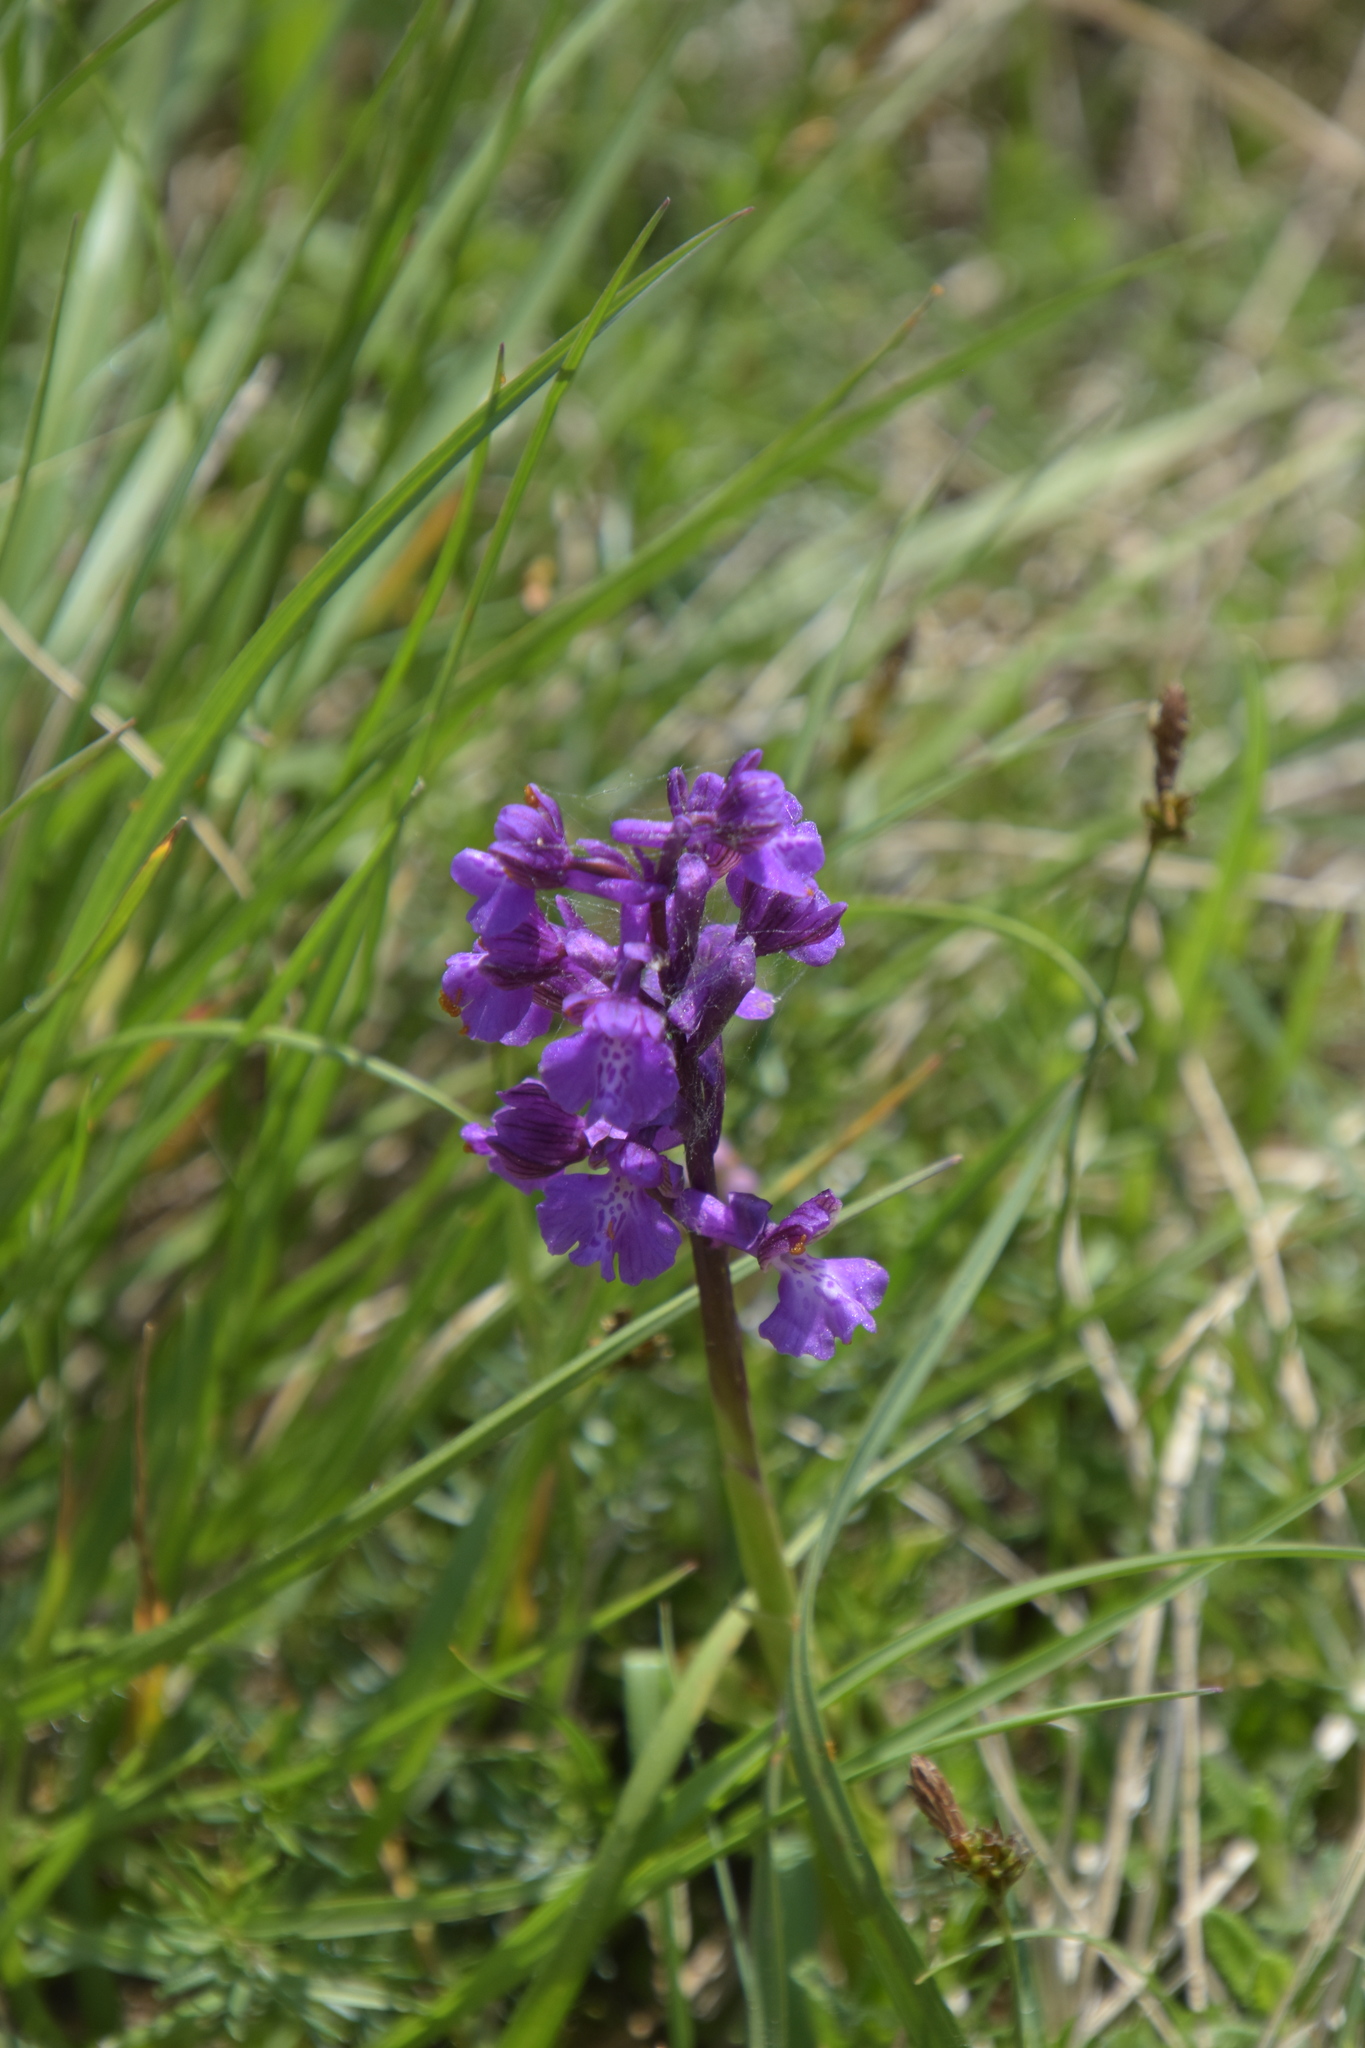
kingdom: Plantae
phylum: Tracheophyta
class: Liliopsida
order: Asparagales
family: Orchidaceae
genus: Anacamptis
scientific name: Anacamptis morio
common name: Green-winged orchid
